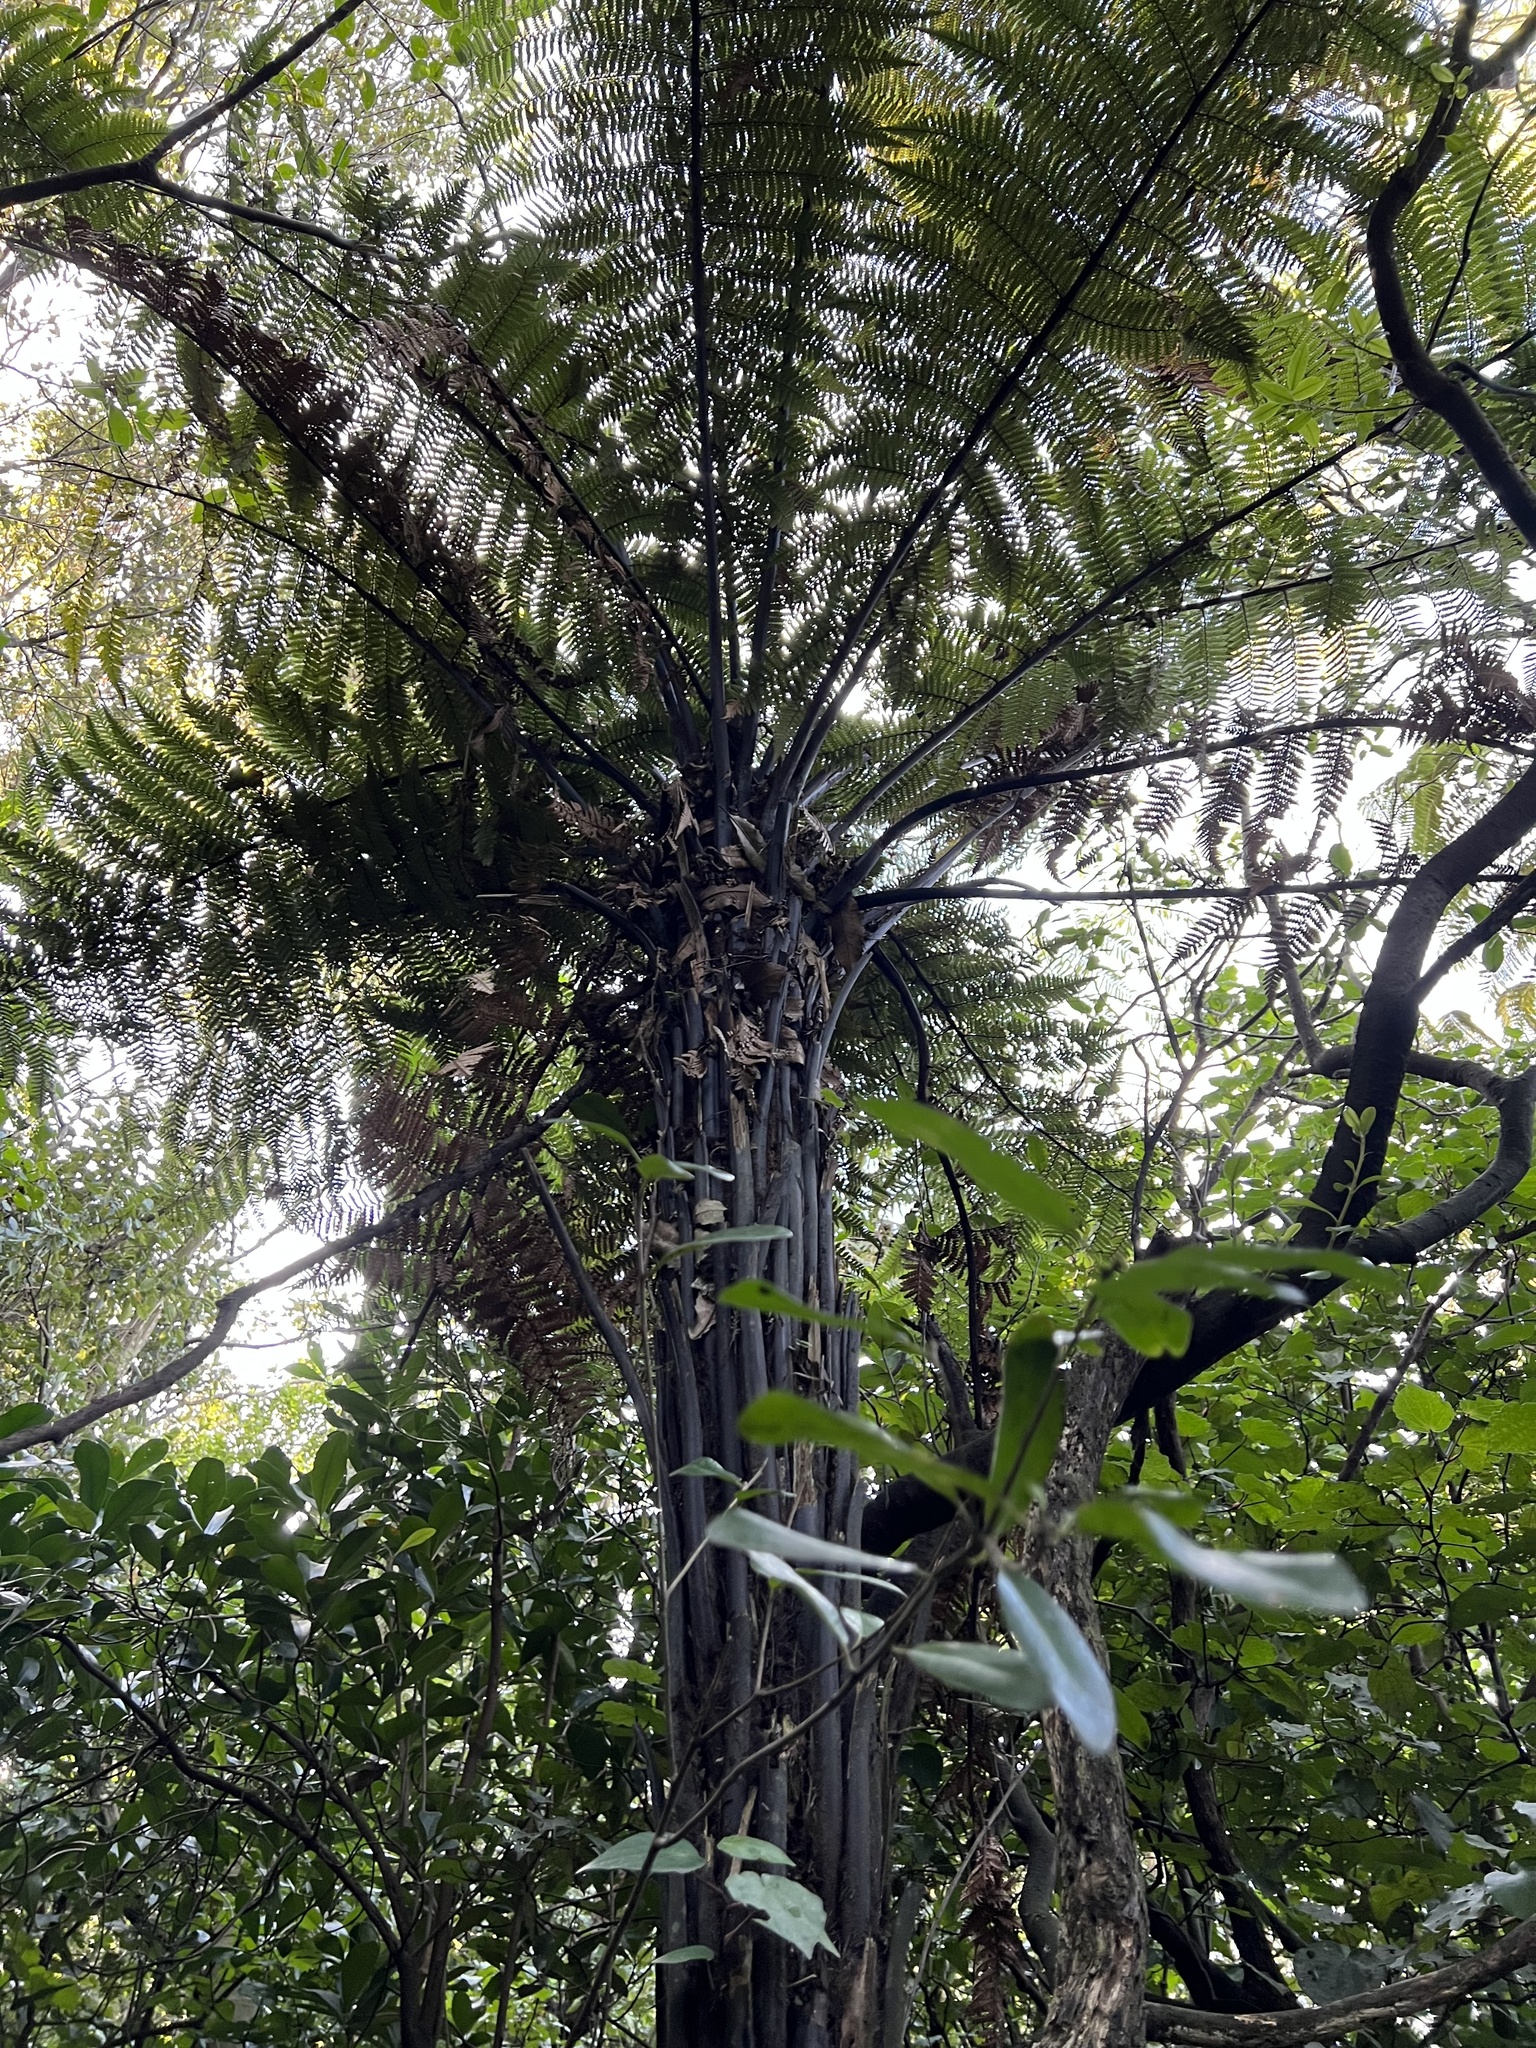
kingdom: Plantae
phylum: Tracheophyta
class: Polypodiopsida
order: Cyatheales
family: Dicksoniaceae
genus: Dicksonia
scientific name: Dicksonia squarrosa
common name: Hard treefern
